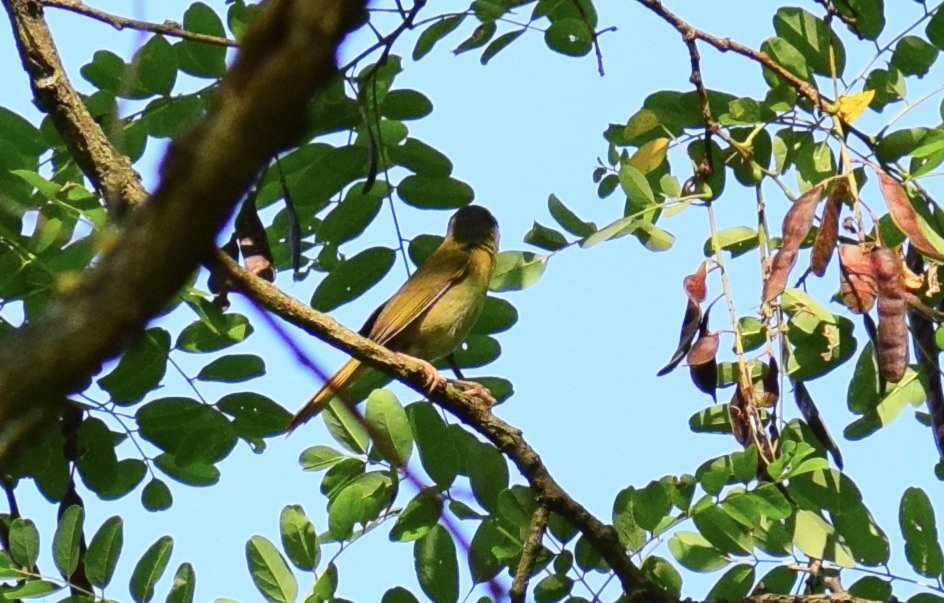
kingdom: Animalia
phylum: Chordata
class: Aves
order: Passeriformes
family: Parulidae
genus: Geothlypis
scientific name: Geothlypis trichas
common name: Common yellowthroat
